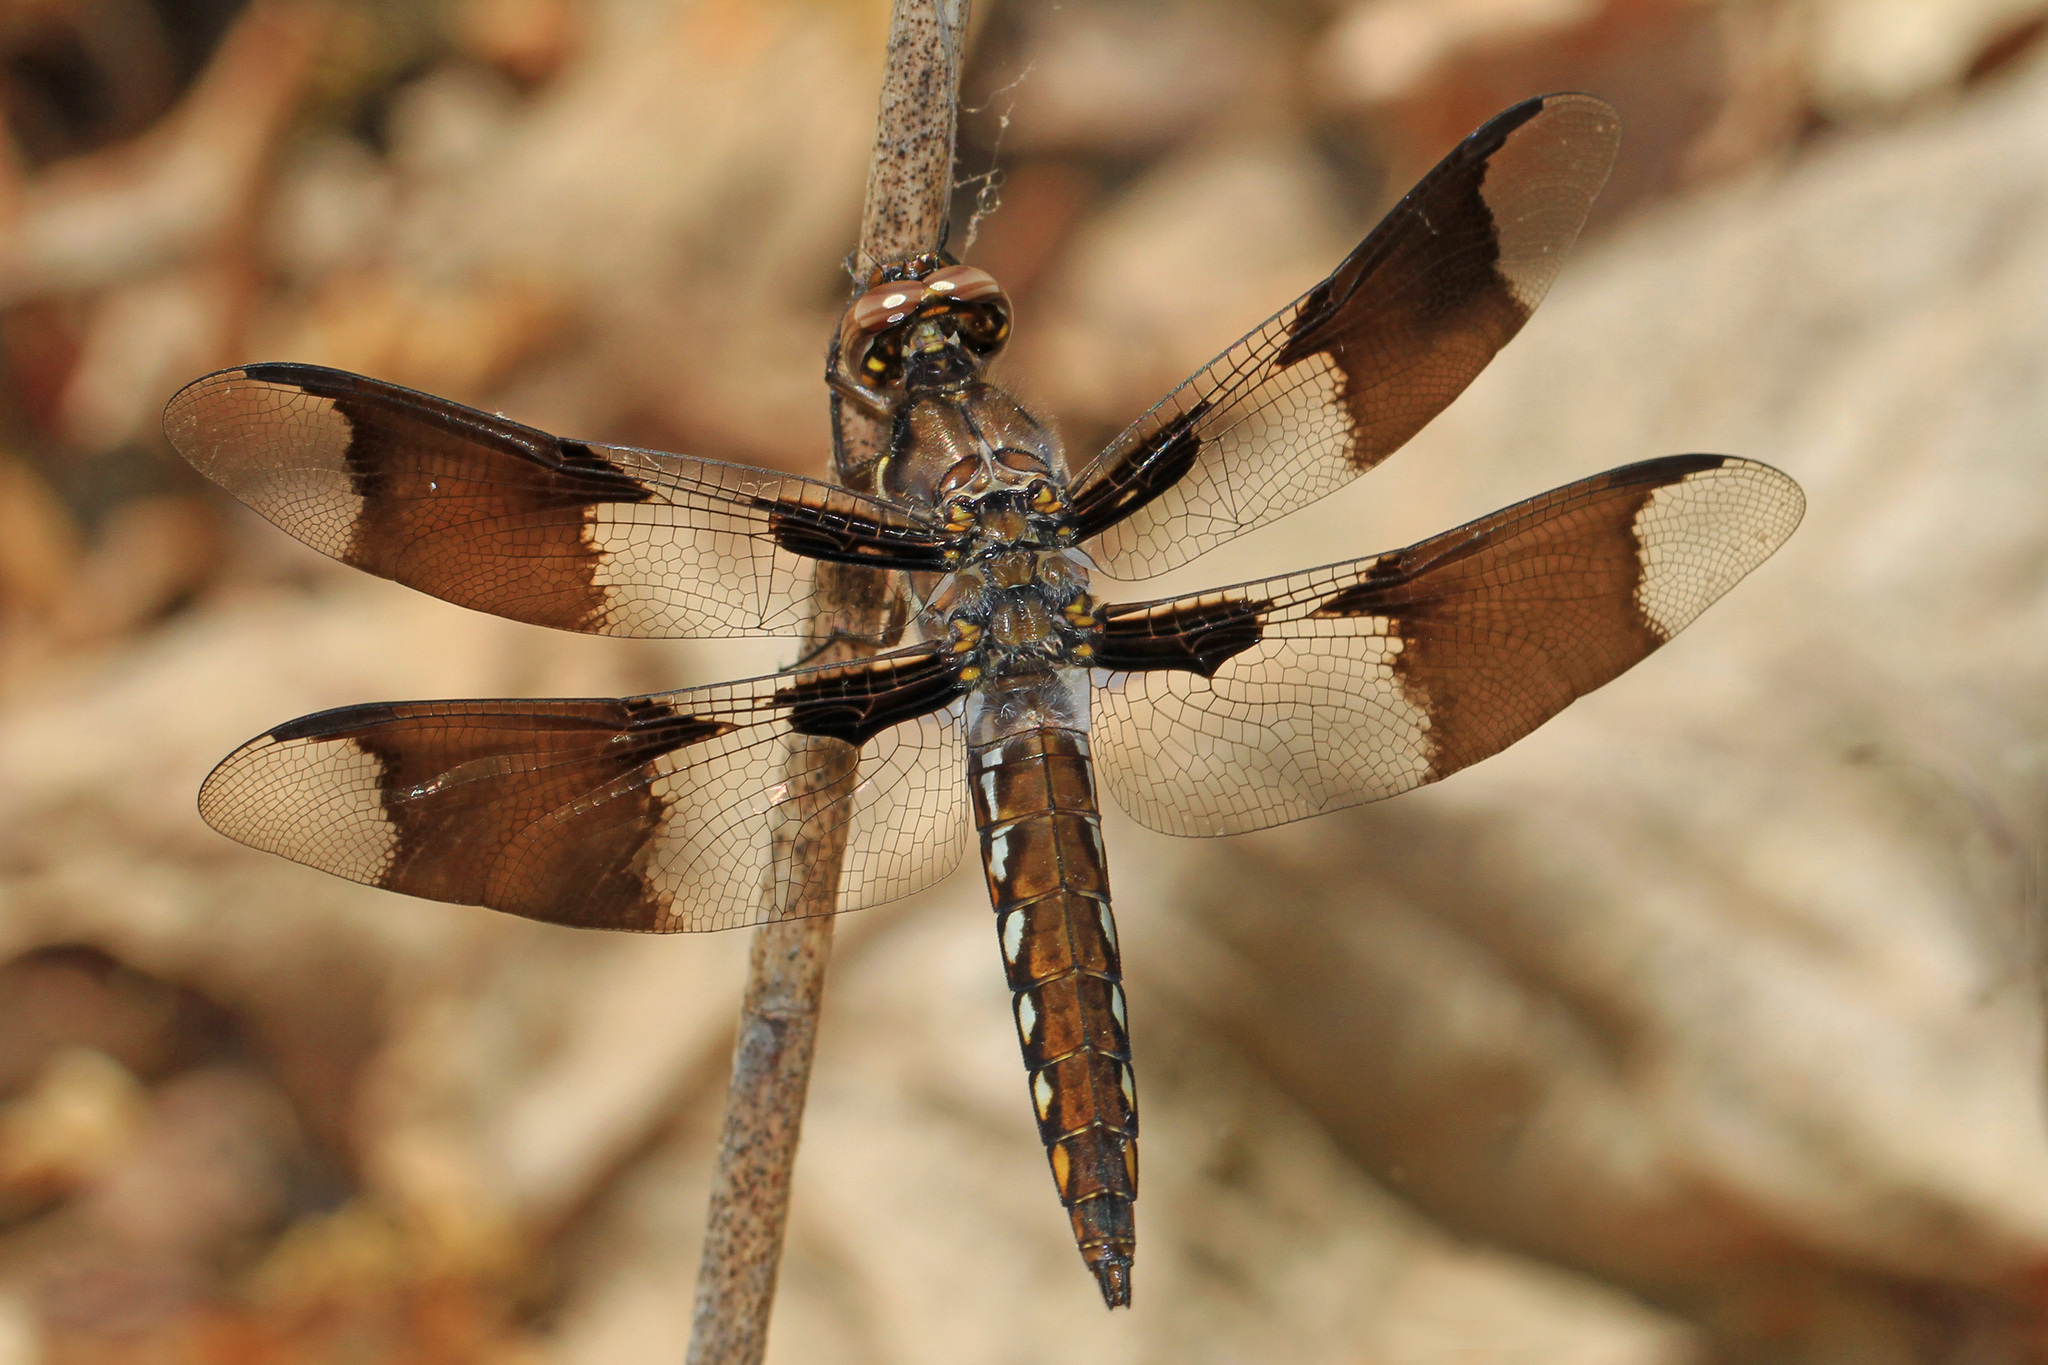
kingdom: Animalia
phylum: Arthropoda
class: Insecta
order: Odonata
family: Libellulidae
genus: Plathemis
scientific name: Plathemis lydia
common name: Common whitetail
